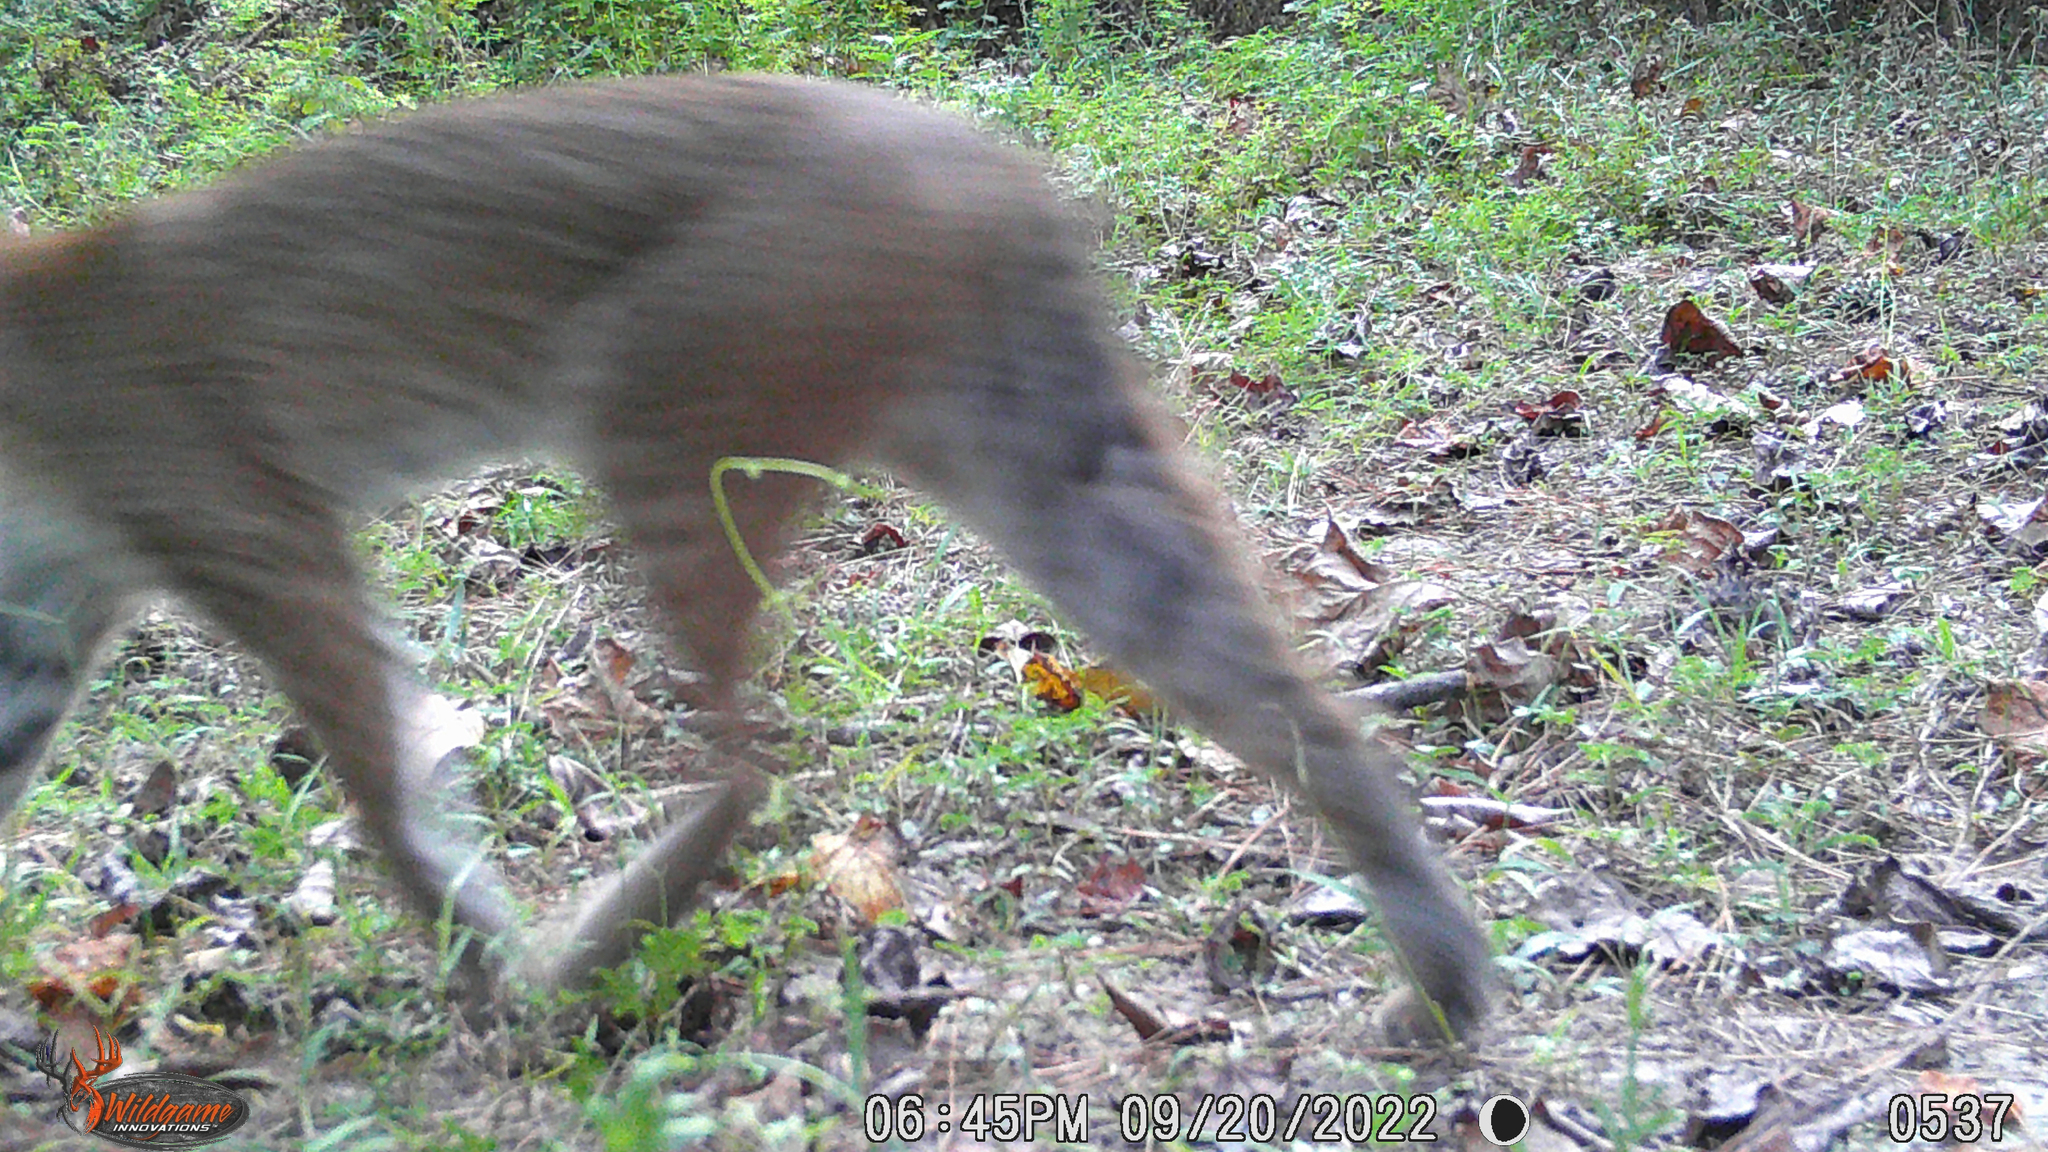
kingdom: Animalia
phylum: Chordata
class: Mammalia
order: Carnivora
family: Felidae
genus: Lynx
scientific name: Lynx rufus
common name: Bobcat
